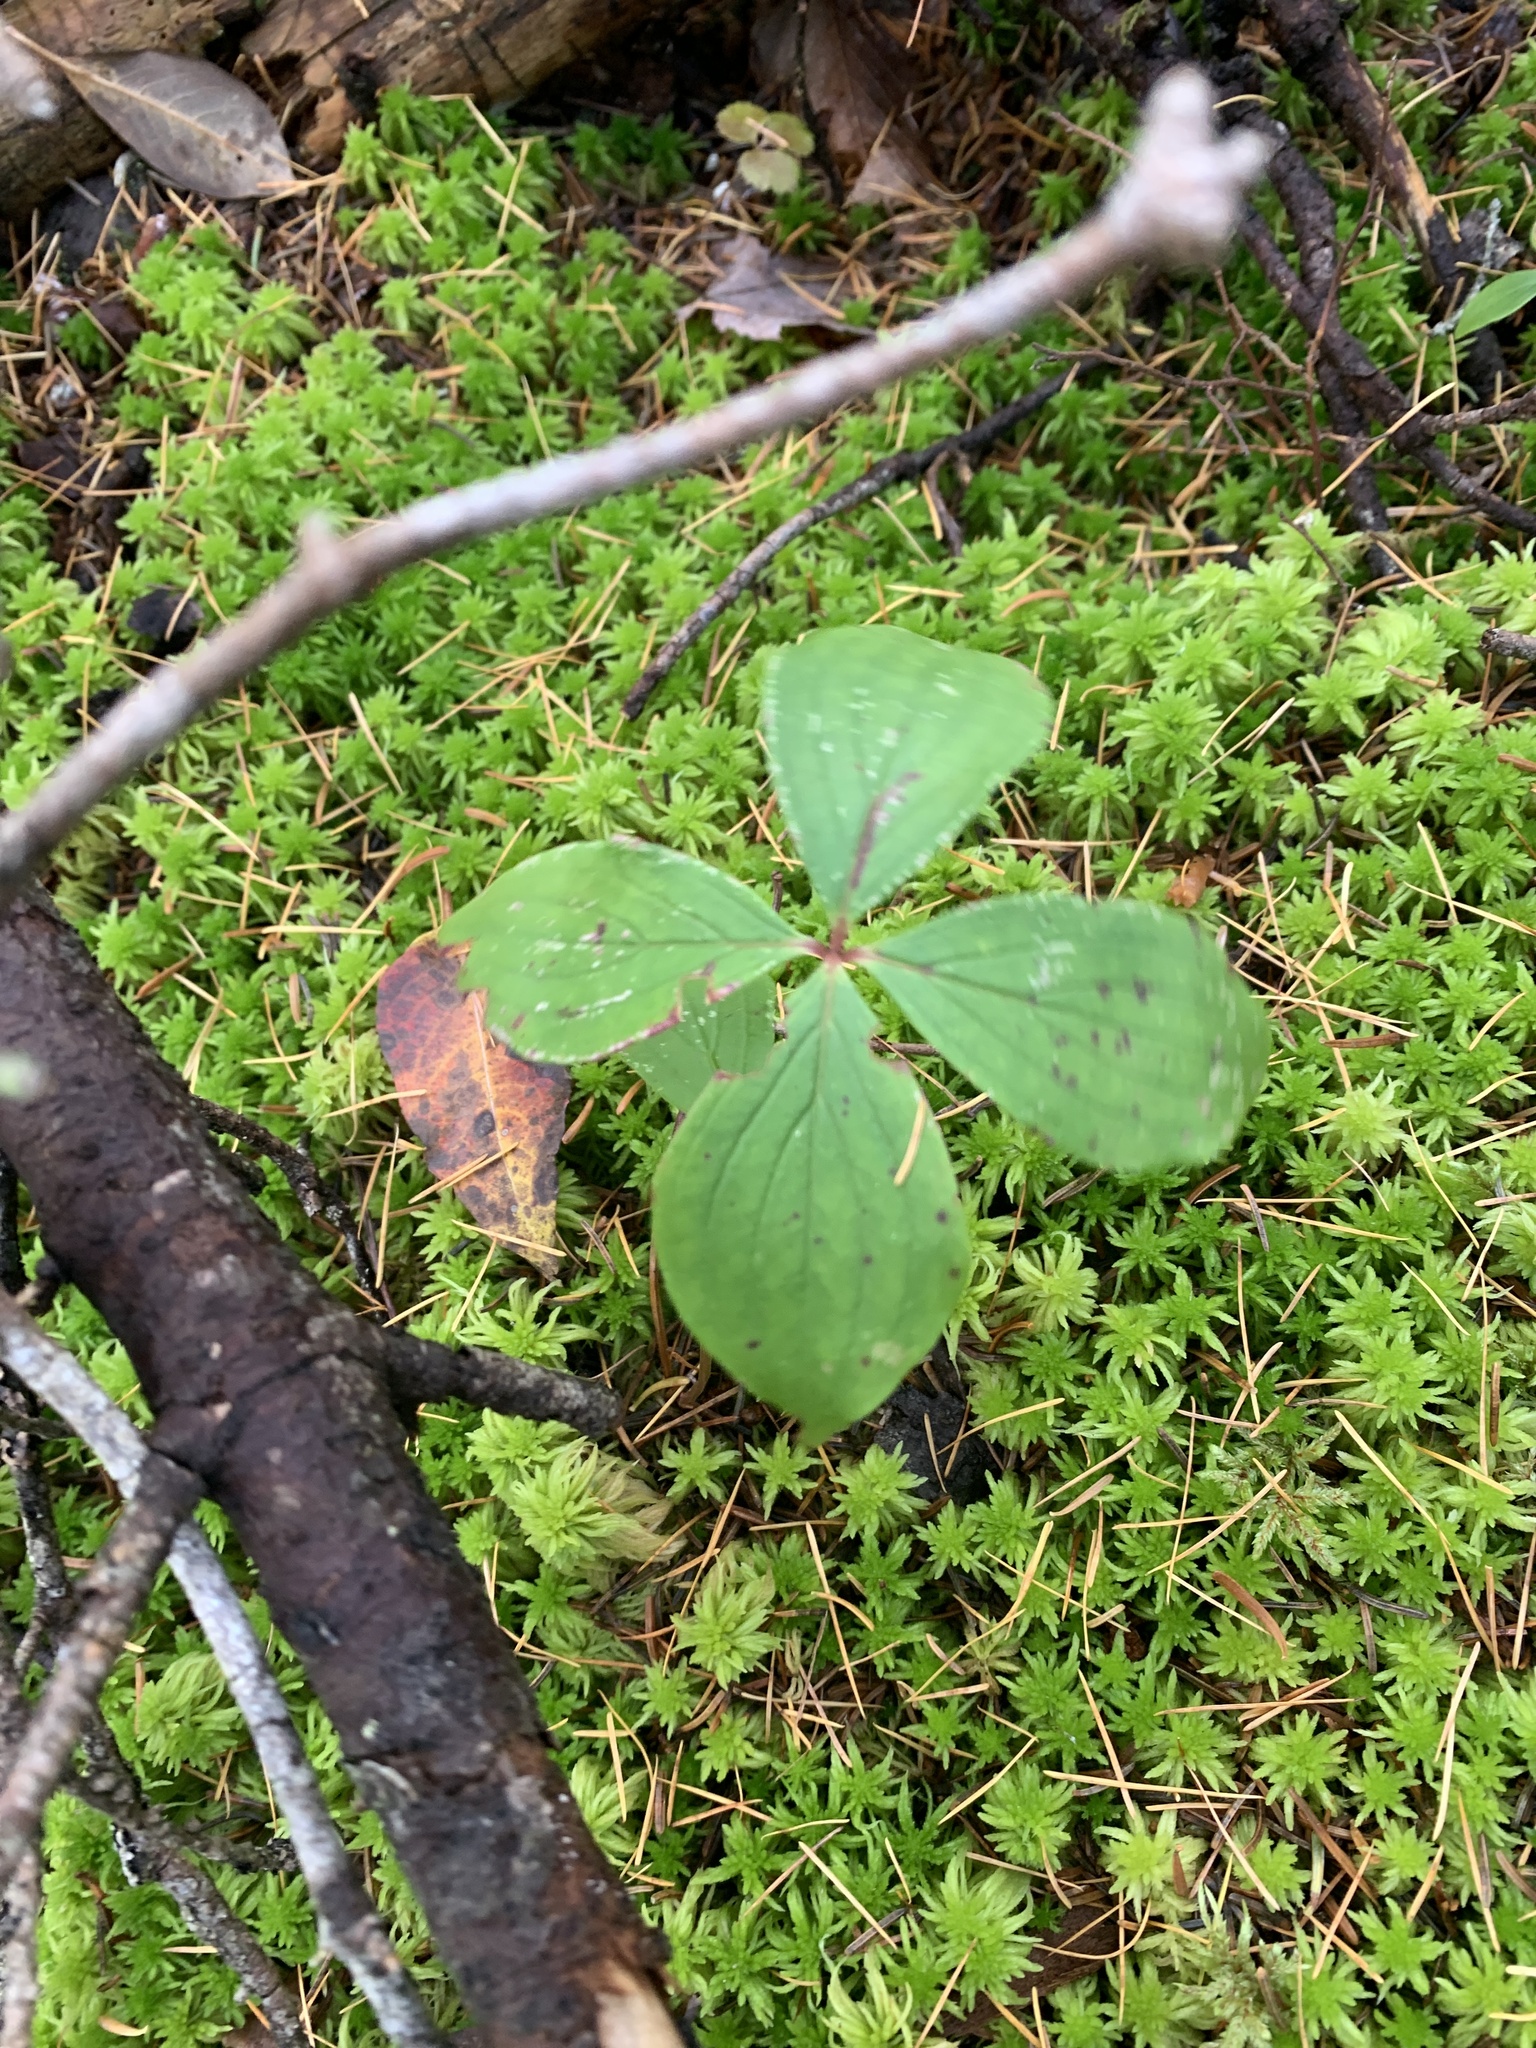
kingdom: Plantae
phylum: Tracheophyta
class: Magnoliopsida
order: Cornales
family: Cornaceae
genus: Cornus
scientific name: Cornus canadensis
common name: Creeping dogwood
